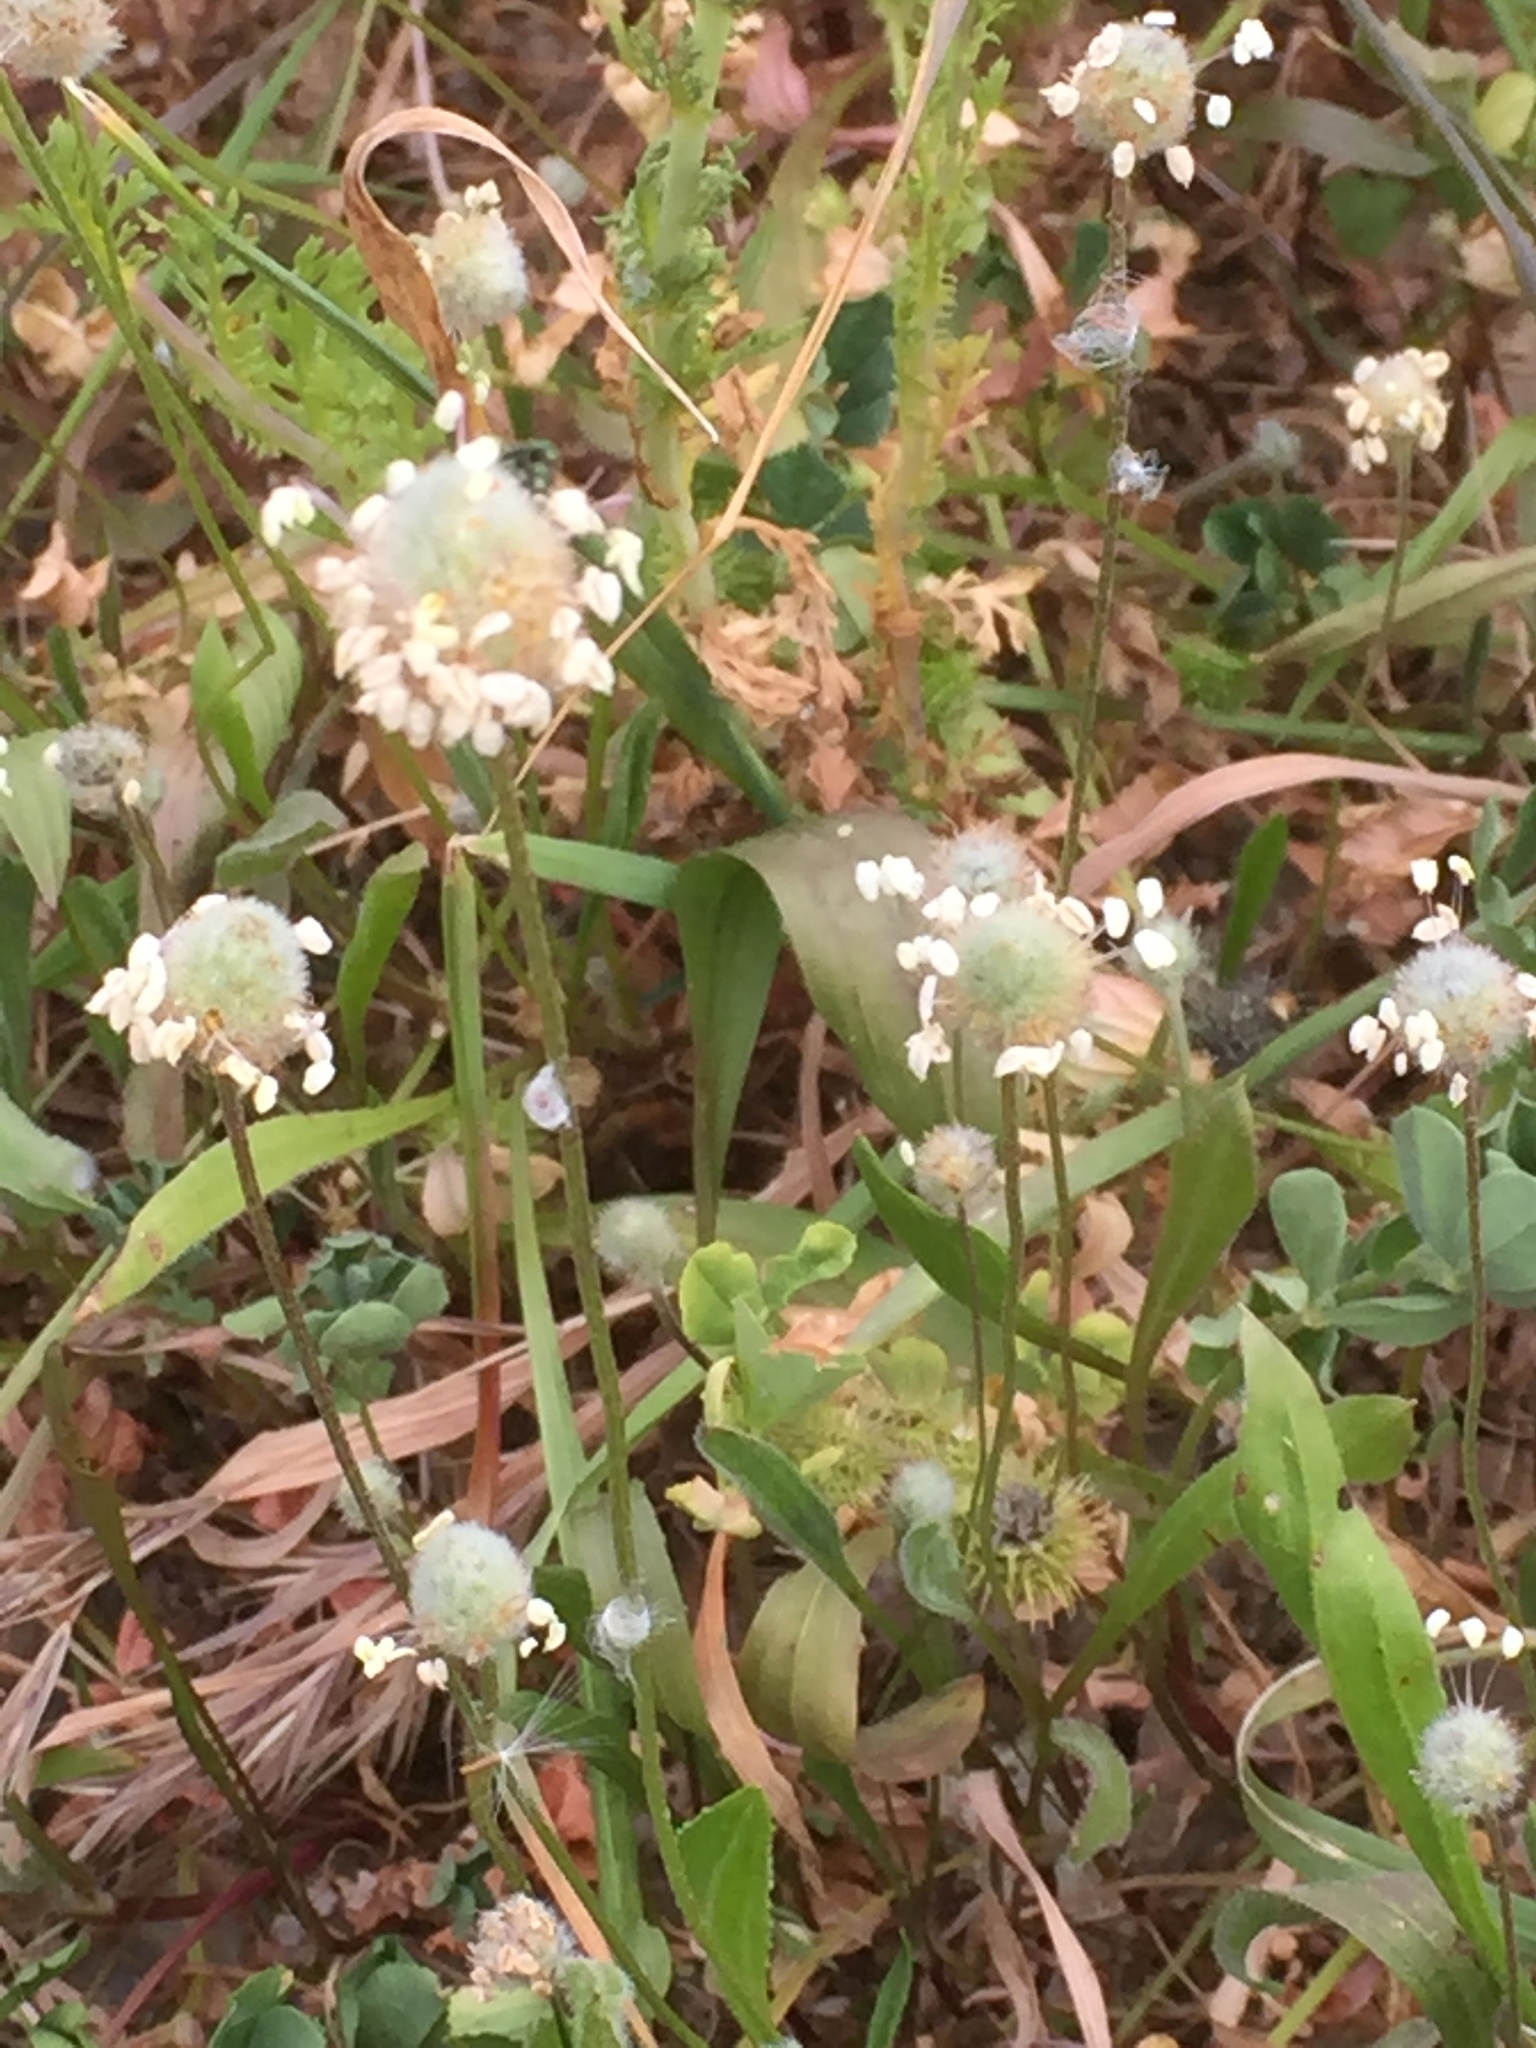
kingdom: Plantae
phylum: Tracheophyta
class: Magnoliopsida
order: Lamiales
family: Plantaginaceae
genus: Plantago
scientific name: Plantago lagopus
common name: Hare-foot plantain
